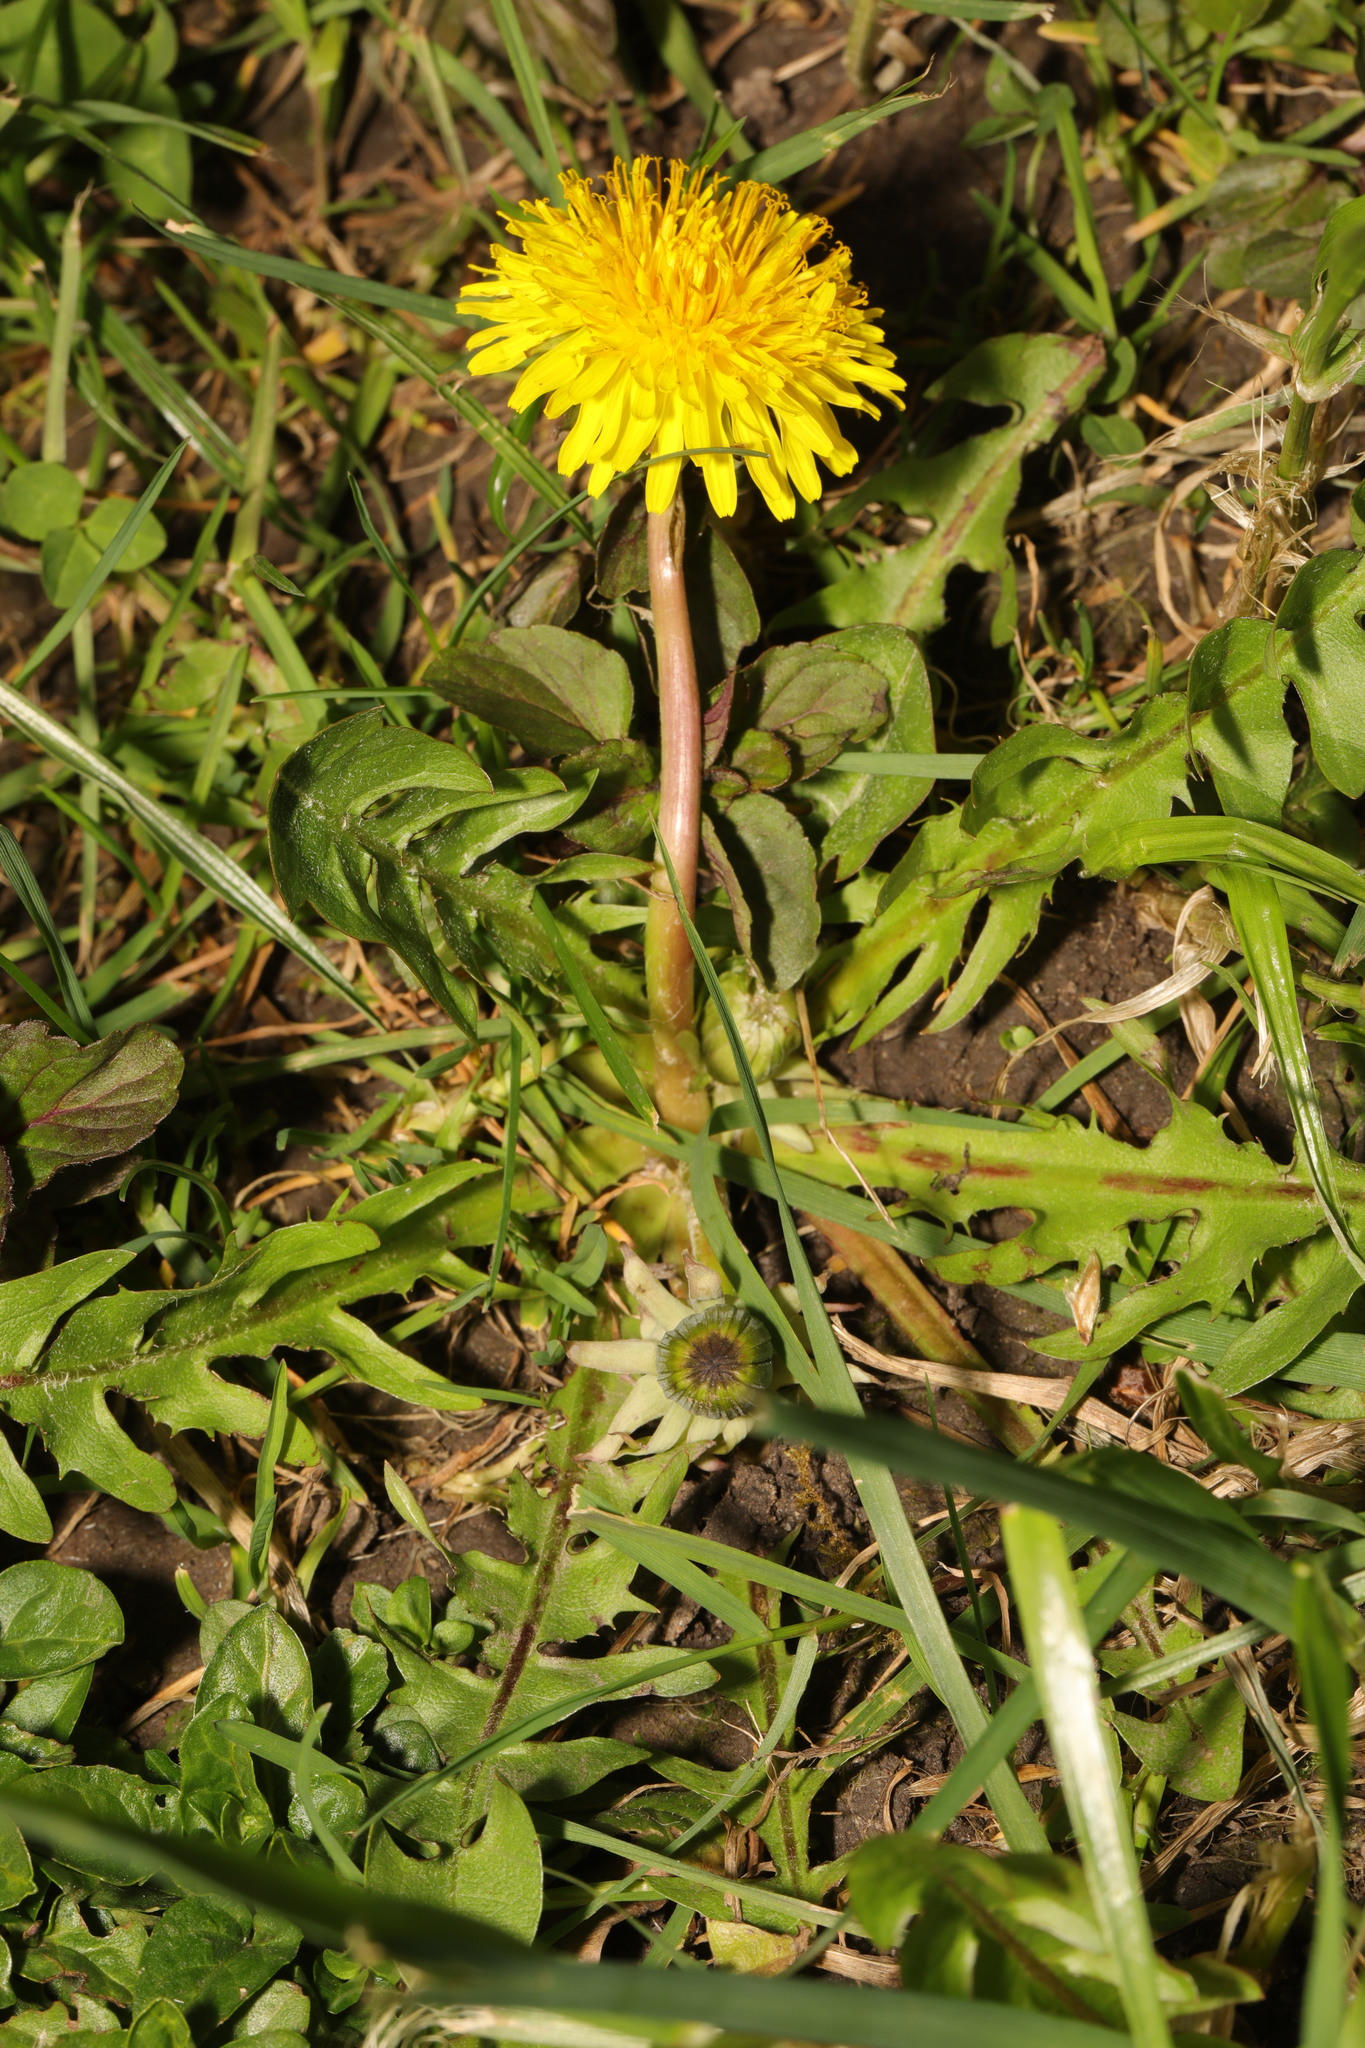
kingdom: Plantae
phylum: Tracheophyta
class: Magnoliopsida
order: Asterales
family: Asteraceae
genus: Taraxacum
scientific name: Taraxacum officinale
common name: Common dandelion
